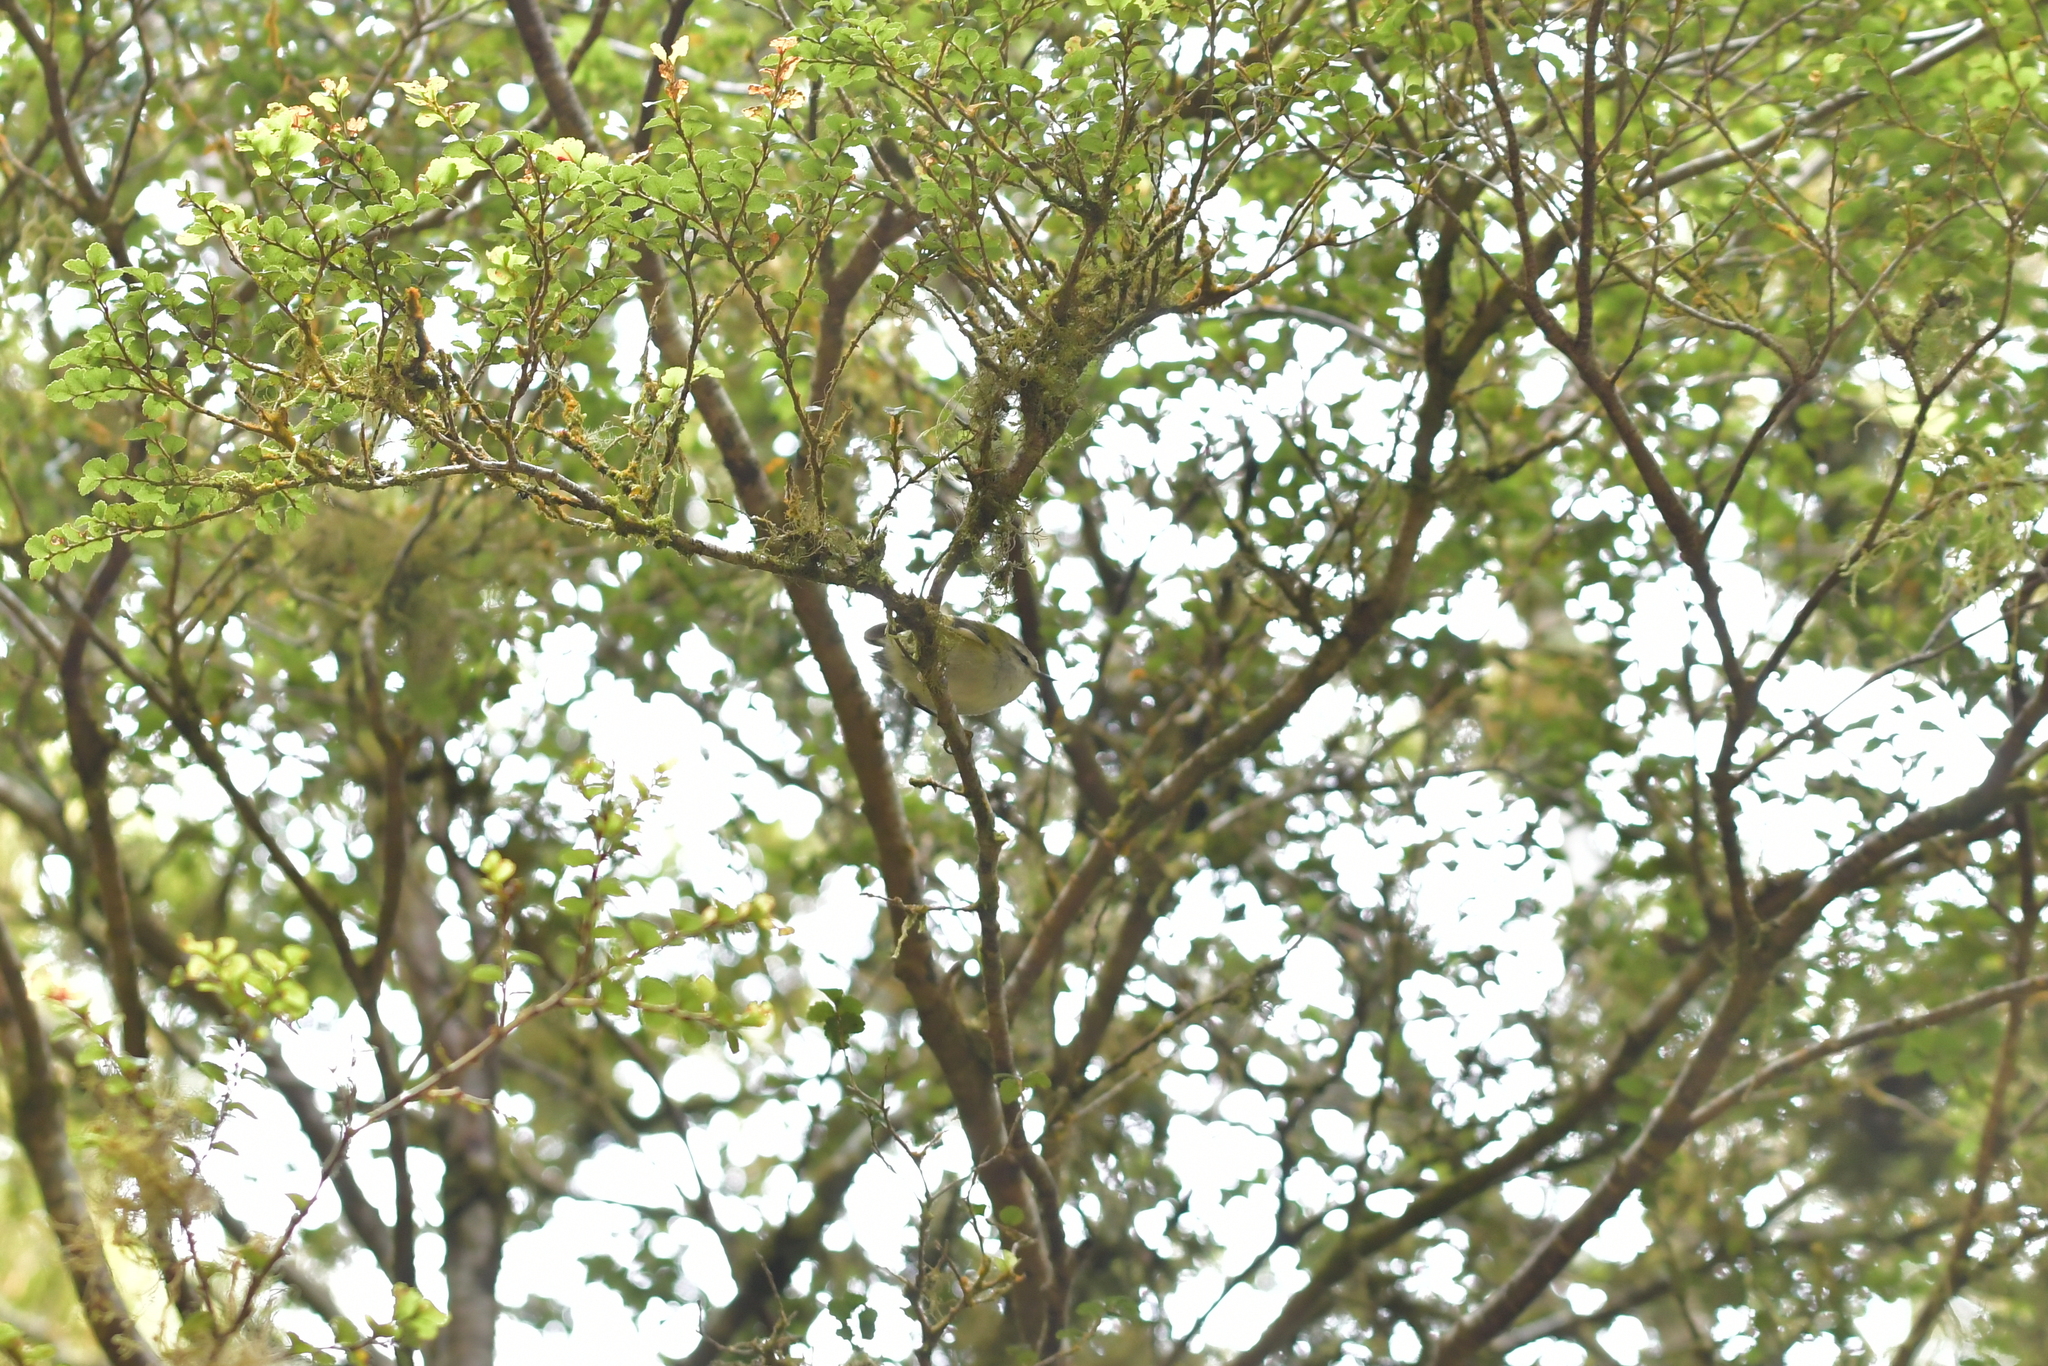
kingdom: Animalia
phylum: Chordata
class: Aves
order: Passeriformes
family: Acanthisittidae
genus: Acanthisitta
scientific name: Acanthisitta chloris
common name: Rifleman
